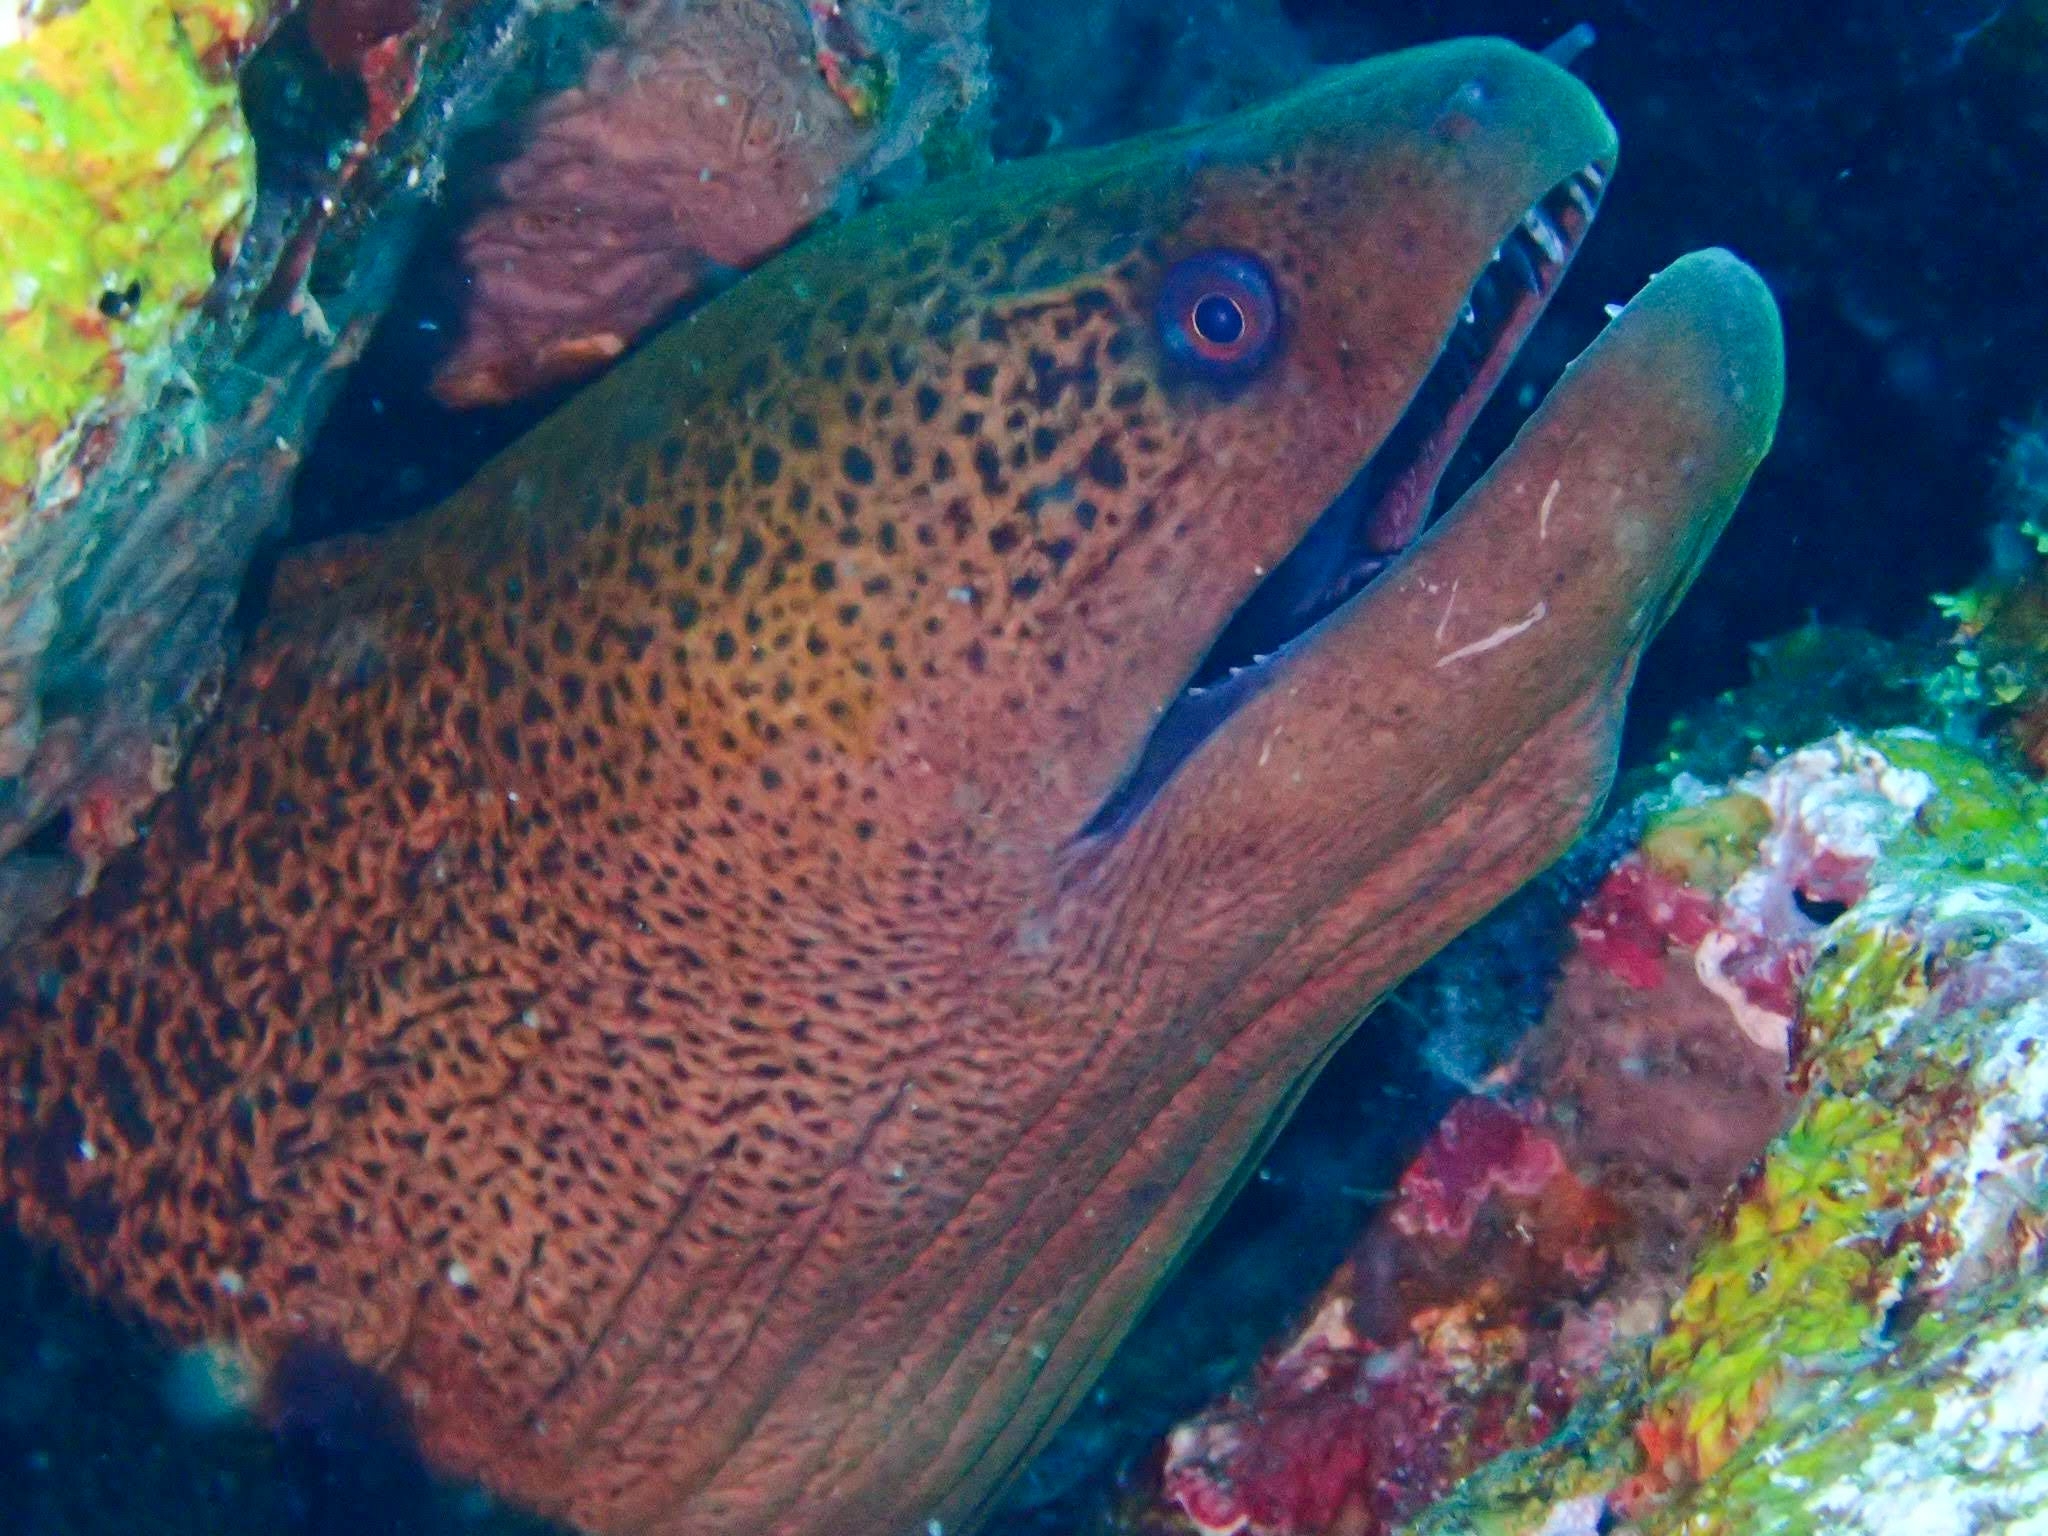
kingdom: Animalia
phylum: Chordata
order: Anguilliformes
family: Muraenidae
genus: Gymnothorax
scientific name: Gymnothorax javanicus
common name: Giant moray
